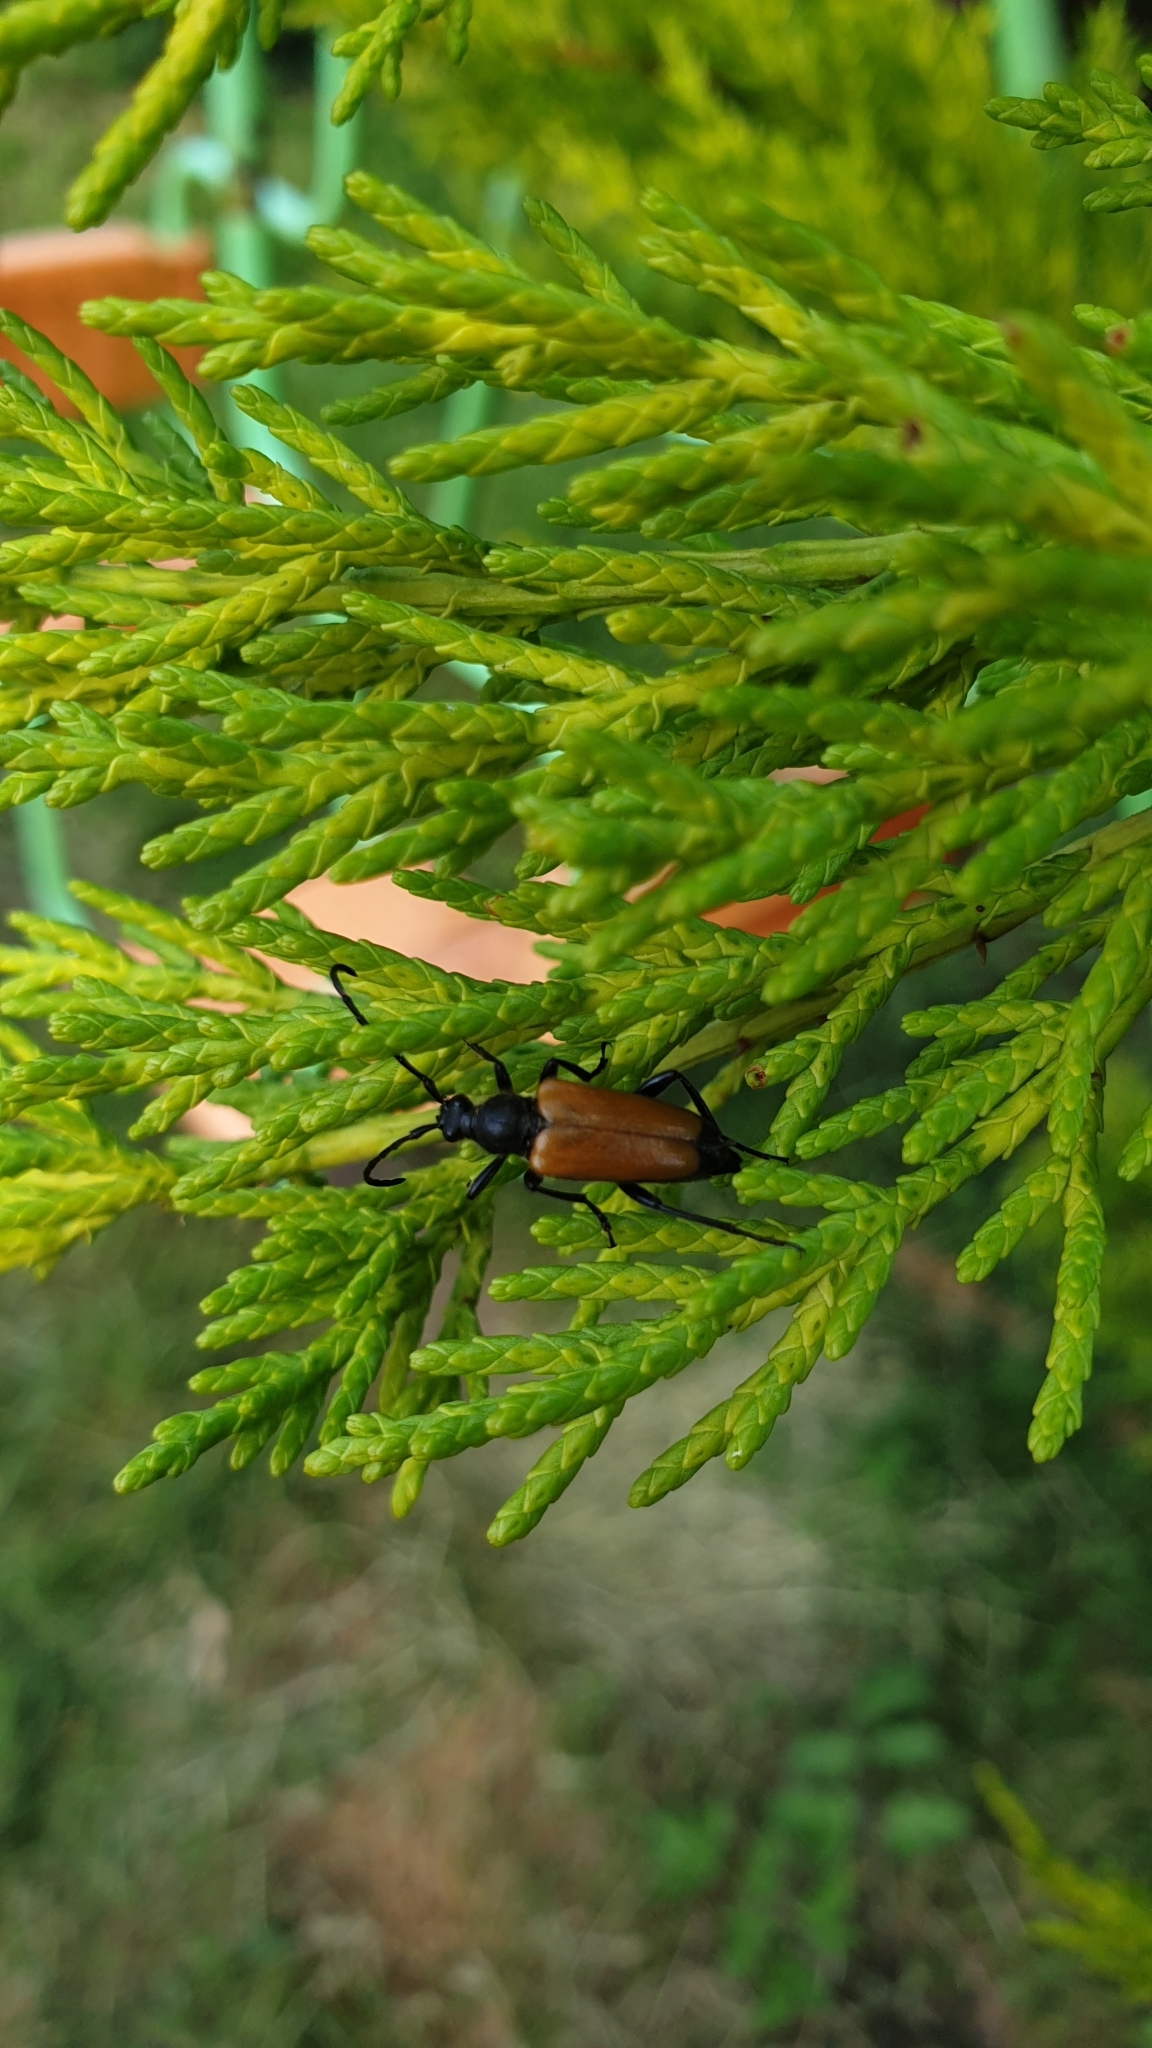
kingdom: Animalia
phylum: Arthropoda
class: Insecta
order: Coleoptera
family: Cerambycidae
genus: Paracorymbia
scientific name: Paracorymbia fulva
